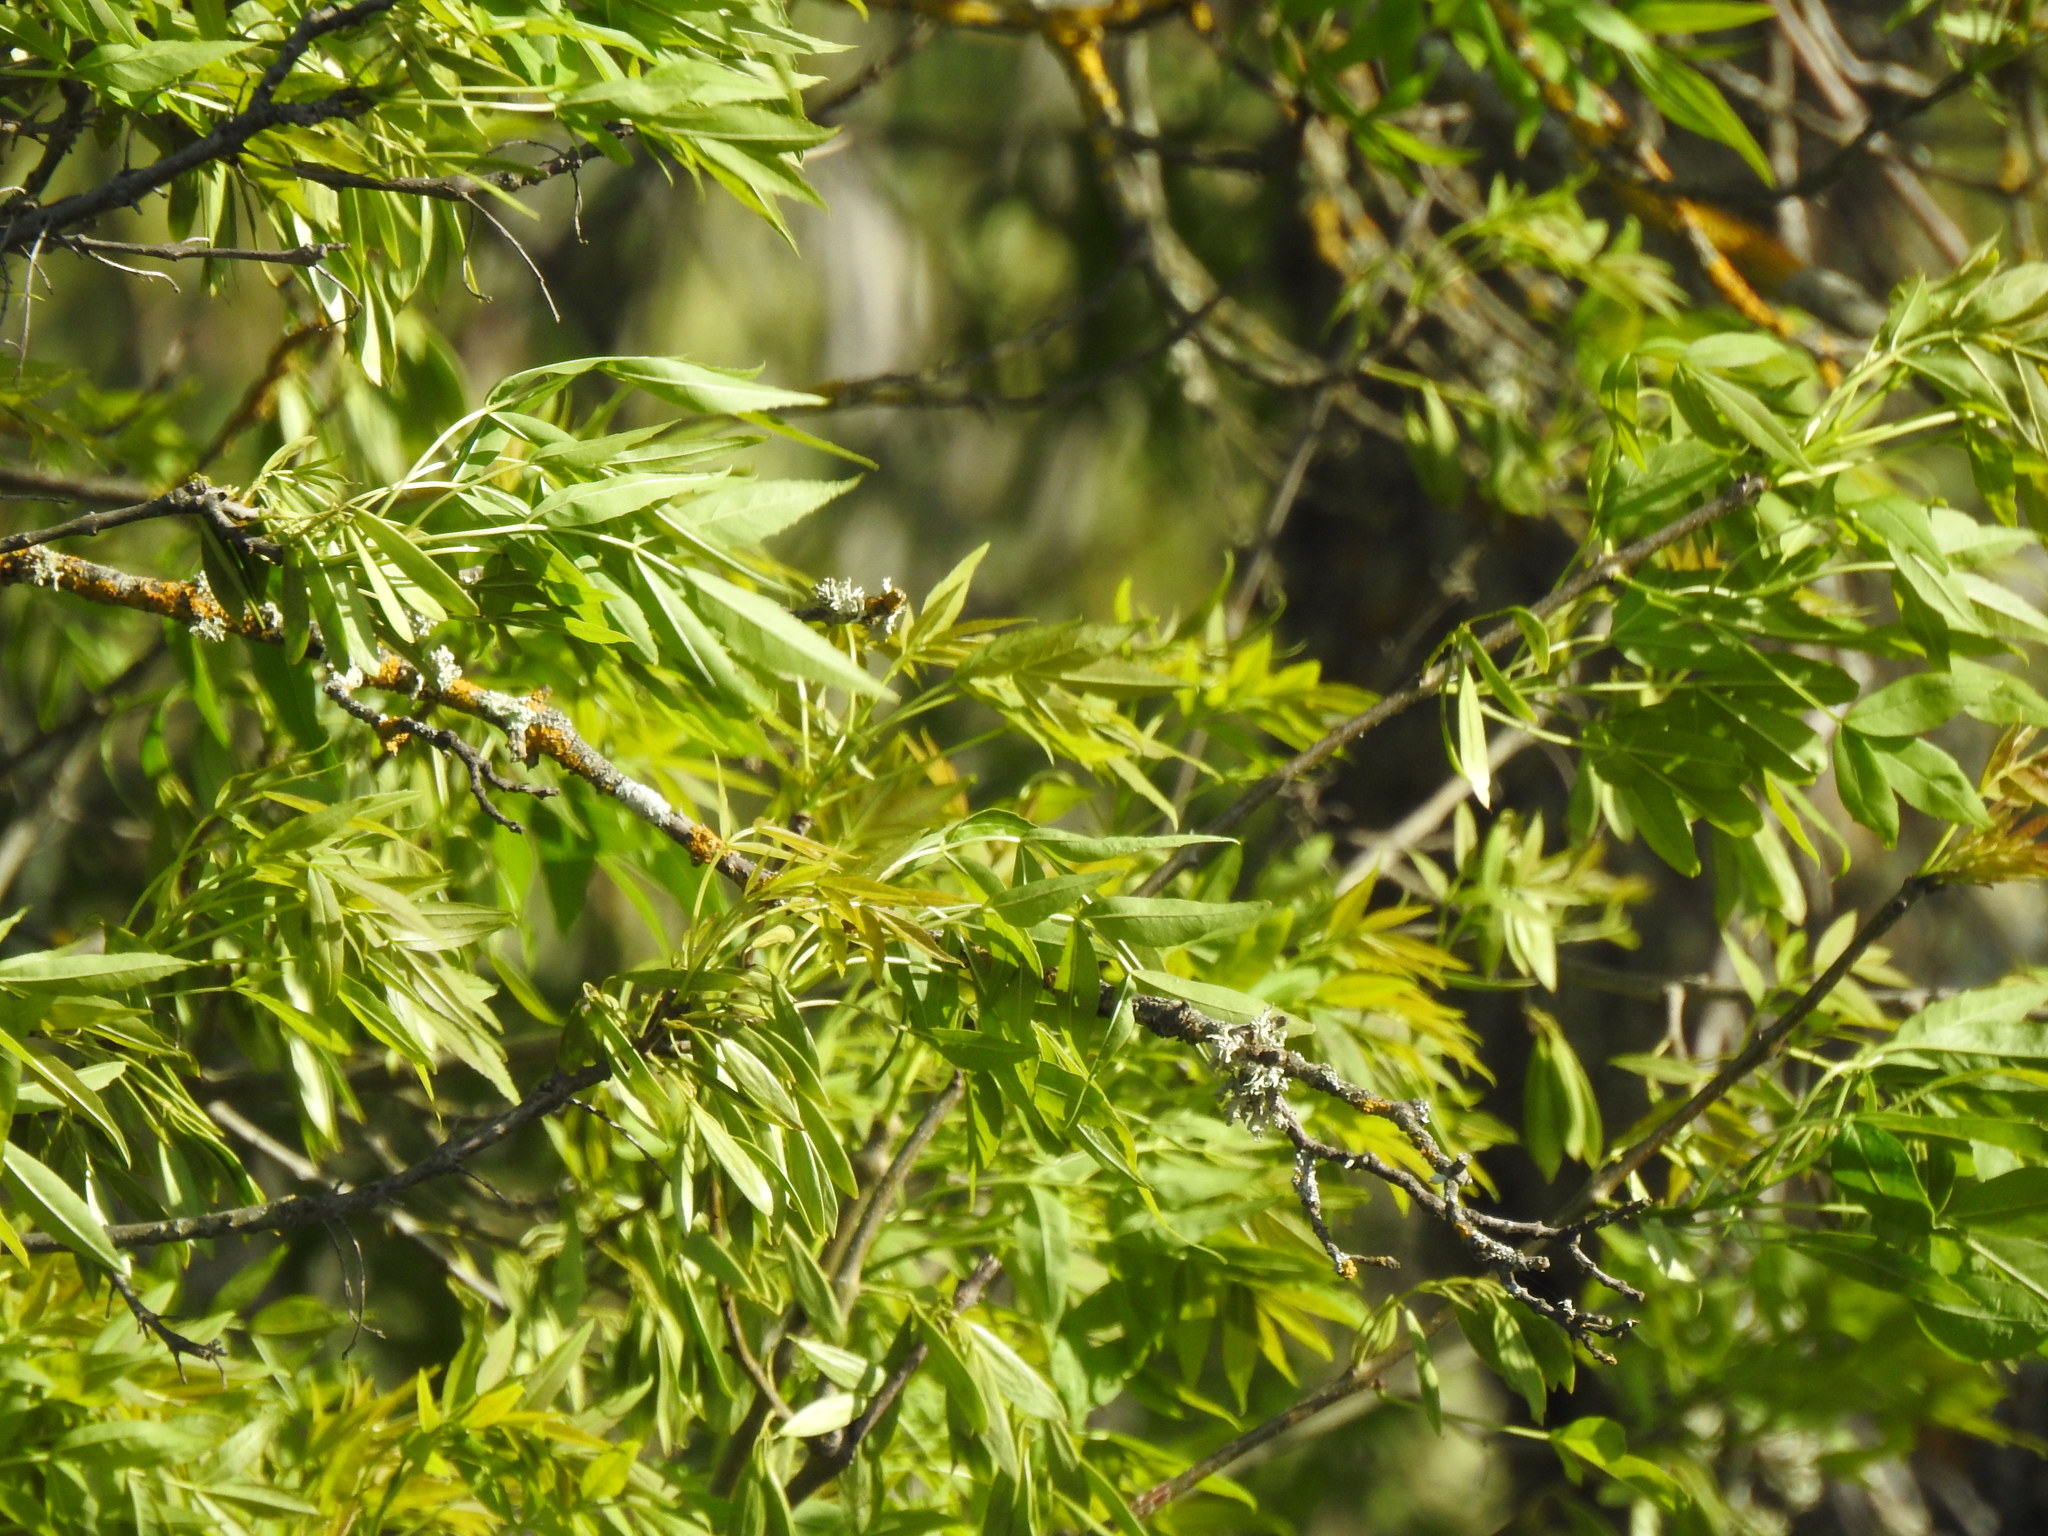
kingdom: Plantae
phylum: Tracheophyta
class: Magnoliopsida
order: Lamiales
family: Oleaceae
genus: Fraxinus
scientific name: Fraxinus angustifolia
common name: Narrow-leafed ash
